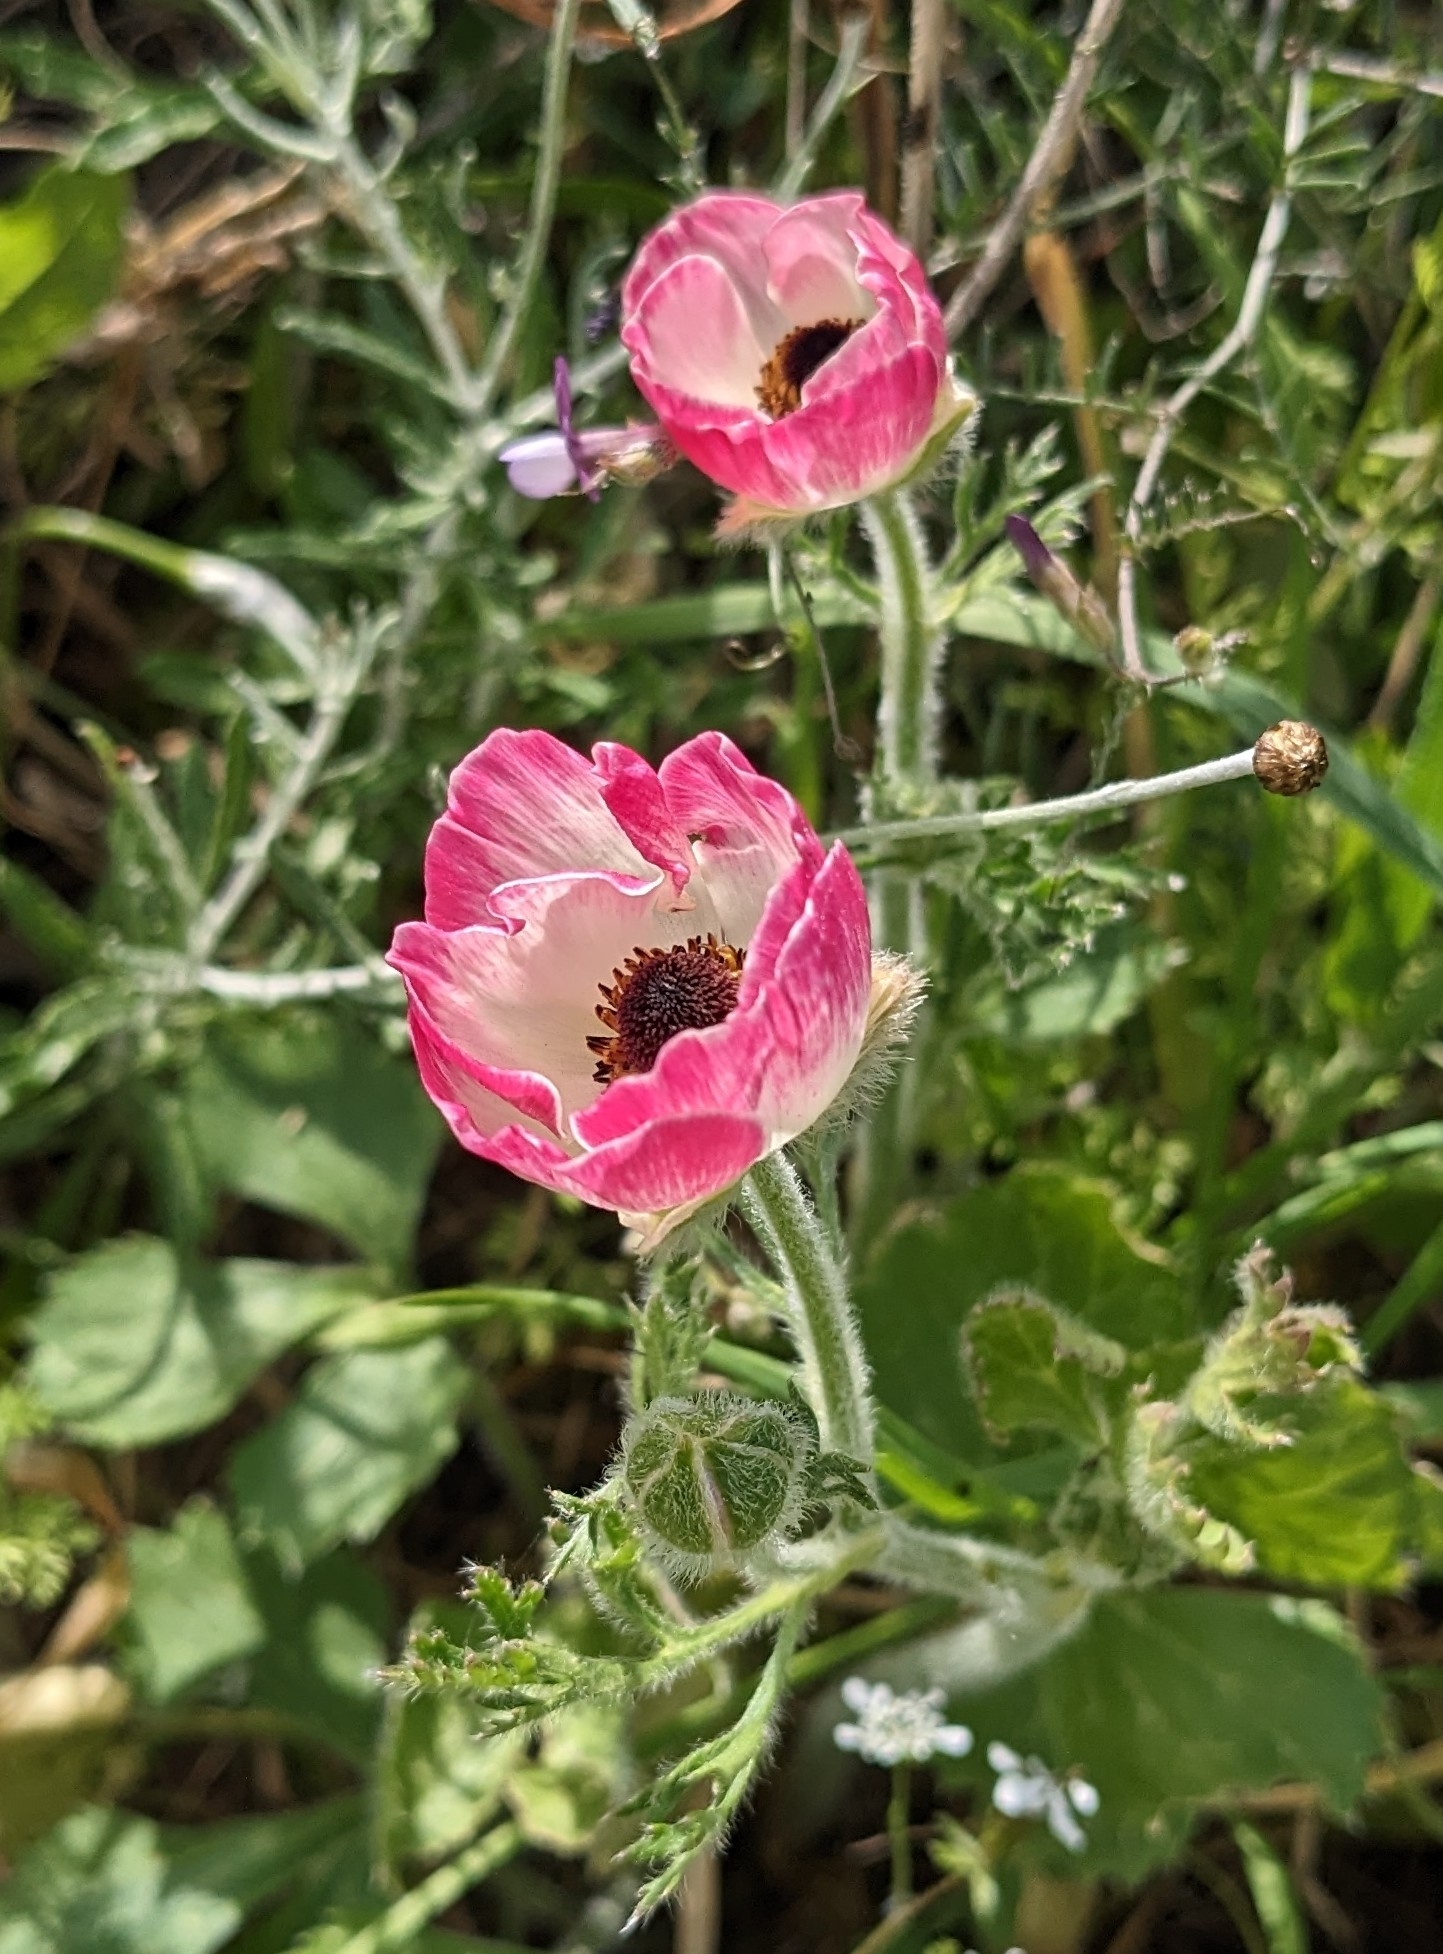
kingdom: Plantae
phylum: Tracheophyta
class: Magnoliopsida
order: Ranunculales
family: Ranunculaceae
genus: Ranunculus
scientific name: Ranunculus asiaticus
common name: Persian buttercup
